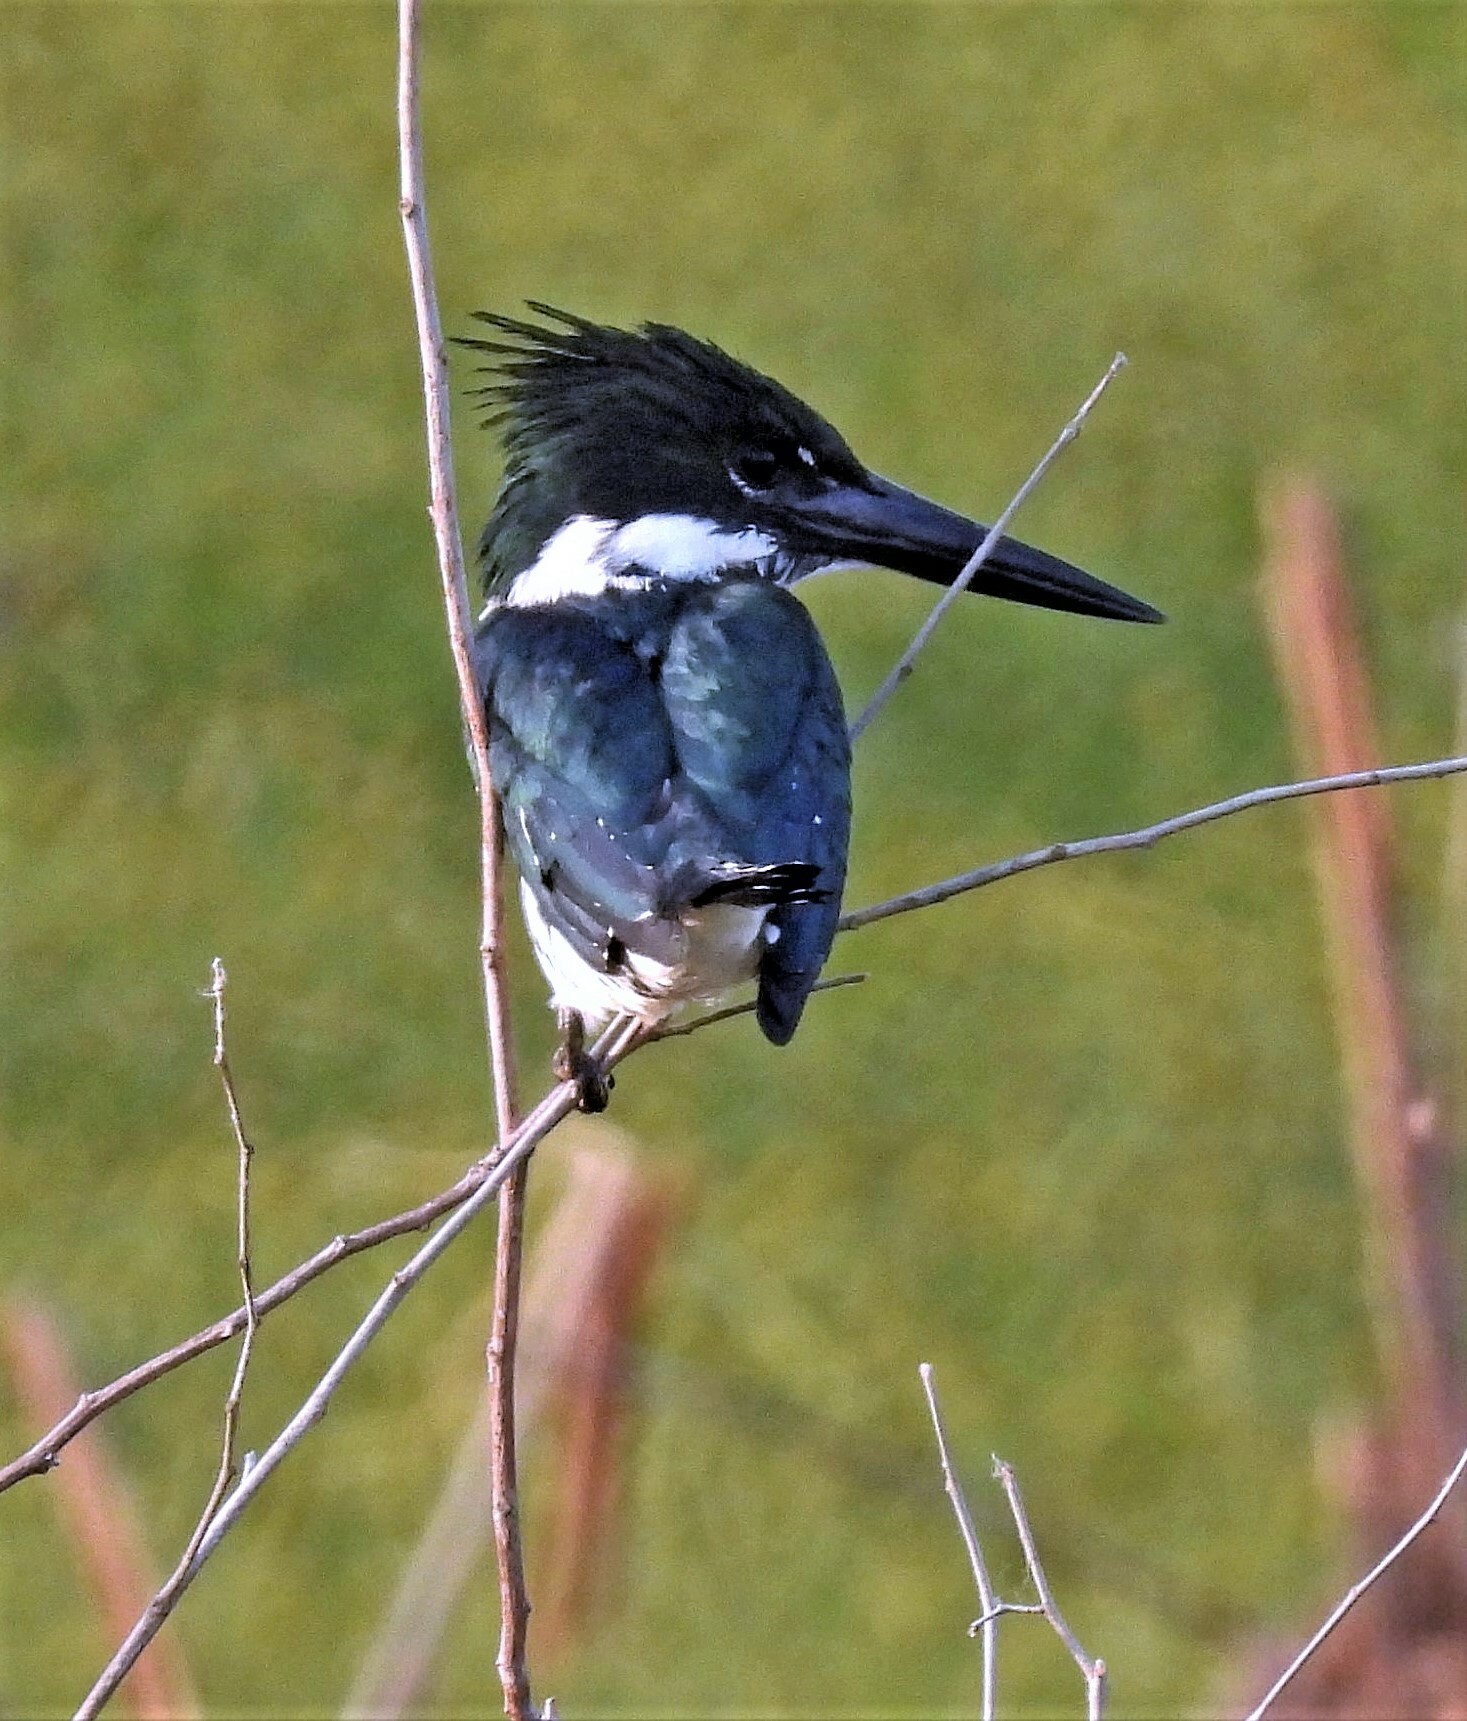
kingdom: Animalia
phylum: Chordata
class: Aves
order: Coraciiformes
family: Alcedinidae
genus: Chloroceryle
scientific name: Chloroceryle amazona
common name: Amazon kingfisher
